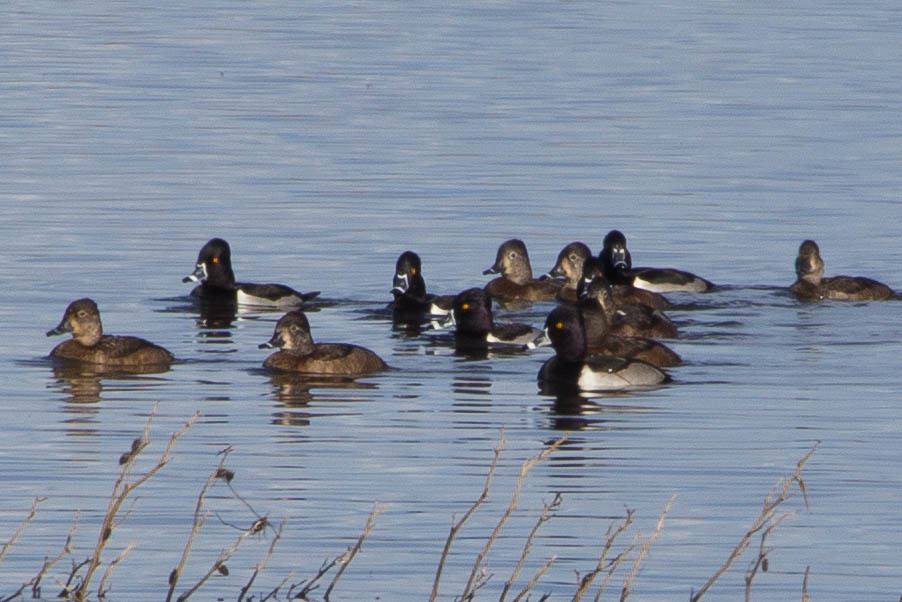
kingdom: Animalia
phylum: Chordata
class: Aves
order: Anseriformes
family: Anatidae
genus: Aythya
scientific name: Aythya collaris
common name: Ring-necked duck
